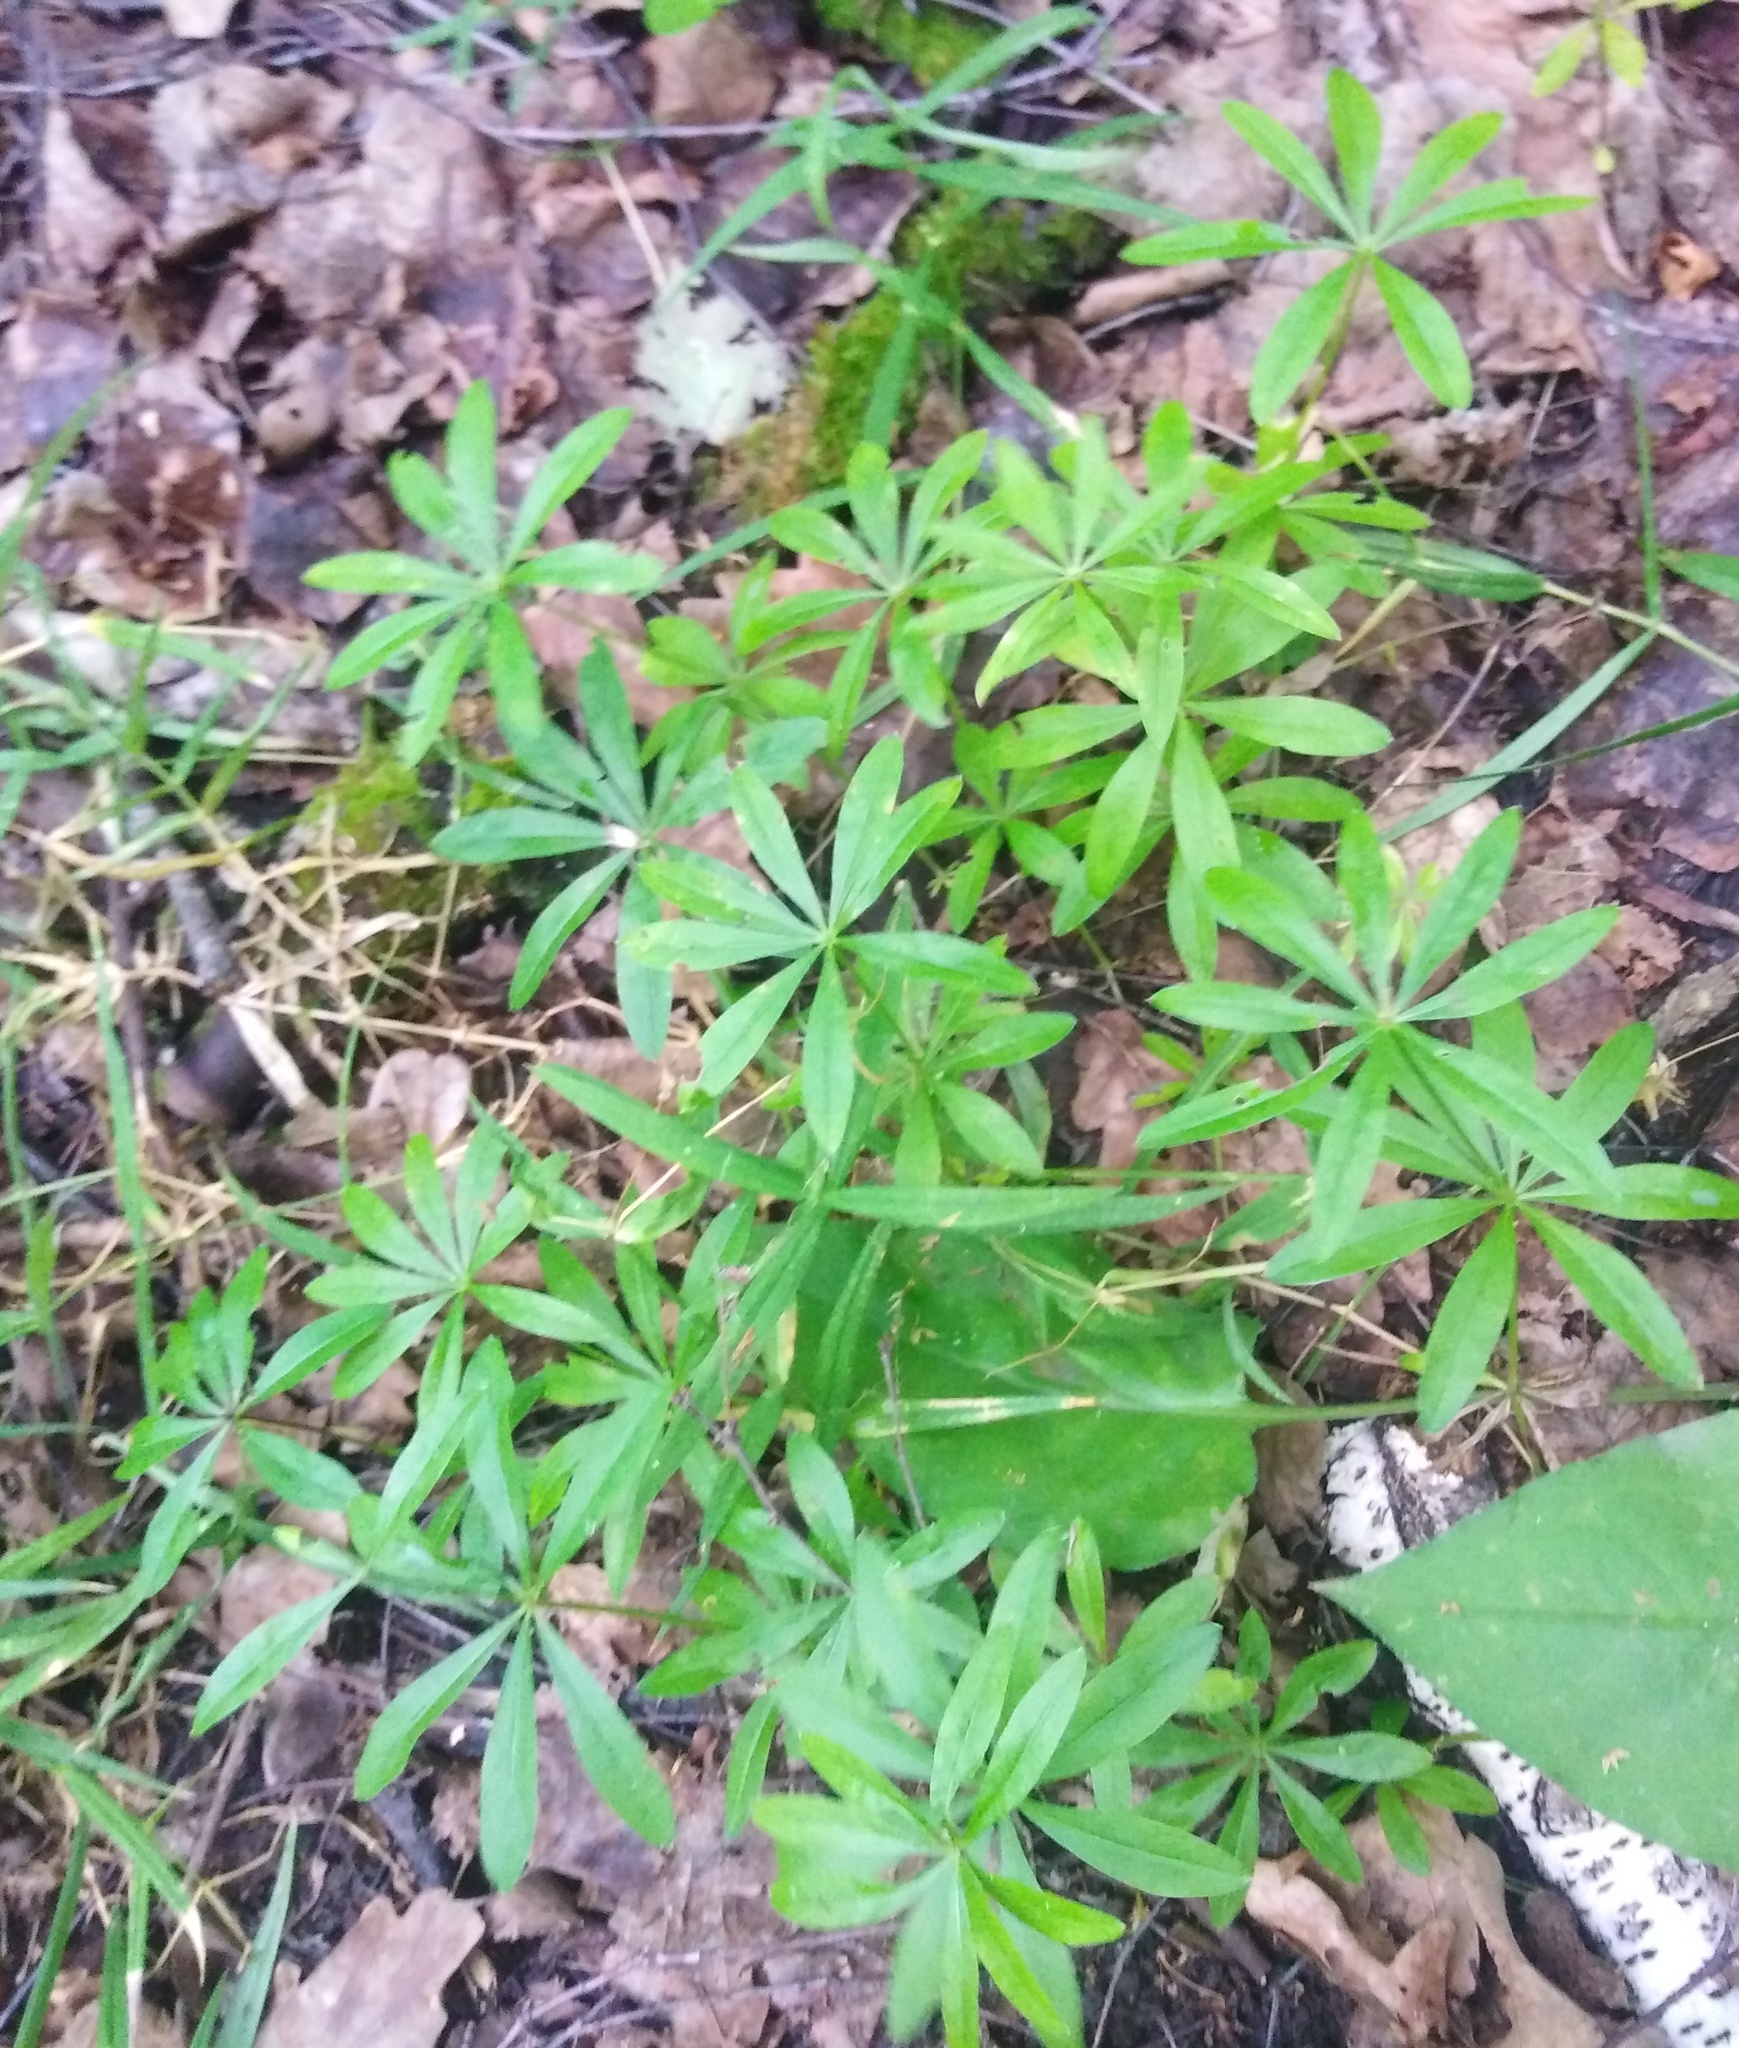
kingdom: Plantae
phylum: Tracheophyta
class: Magnoliopsida
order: Gentianales
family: Rubiaceae
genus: Galium
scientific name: Galium odoratum
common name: Sweet woodruff
